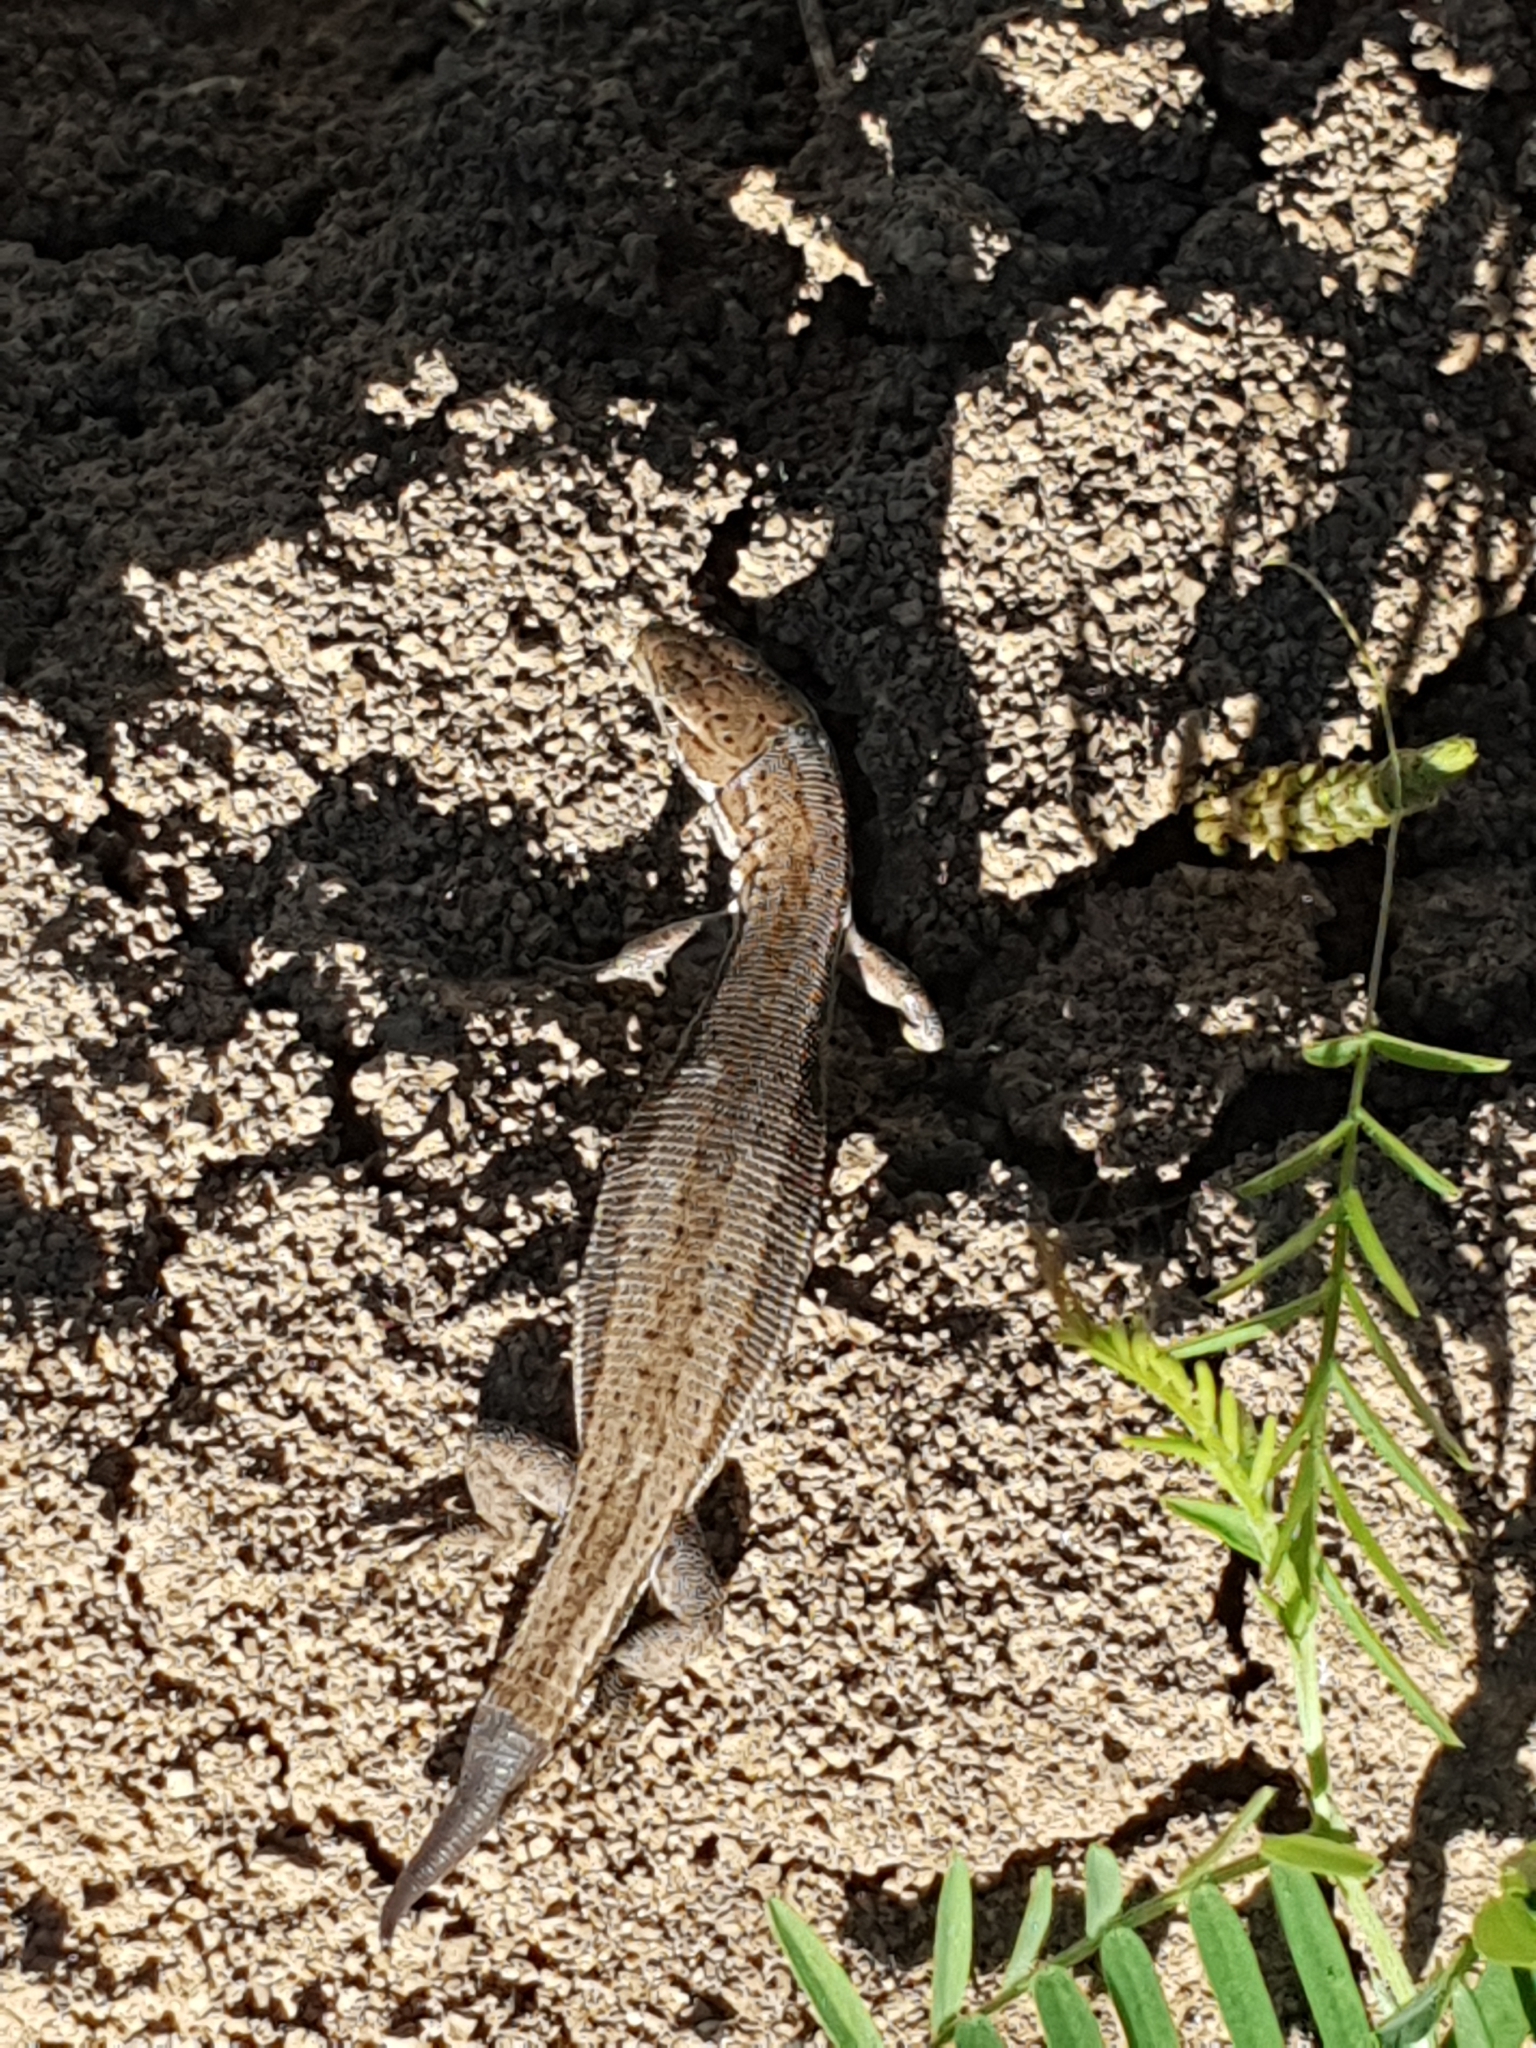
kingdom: Animalia
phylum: Chordata
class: Squamata
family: Lacertidae
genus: Darevskia
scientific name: Darevskia praticola
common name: Meadow lizard
